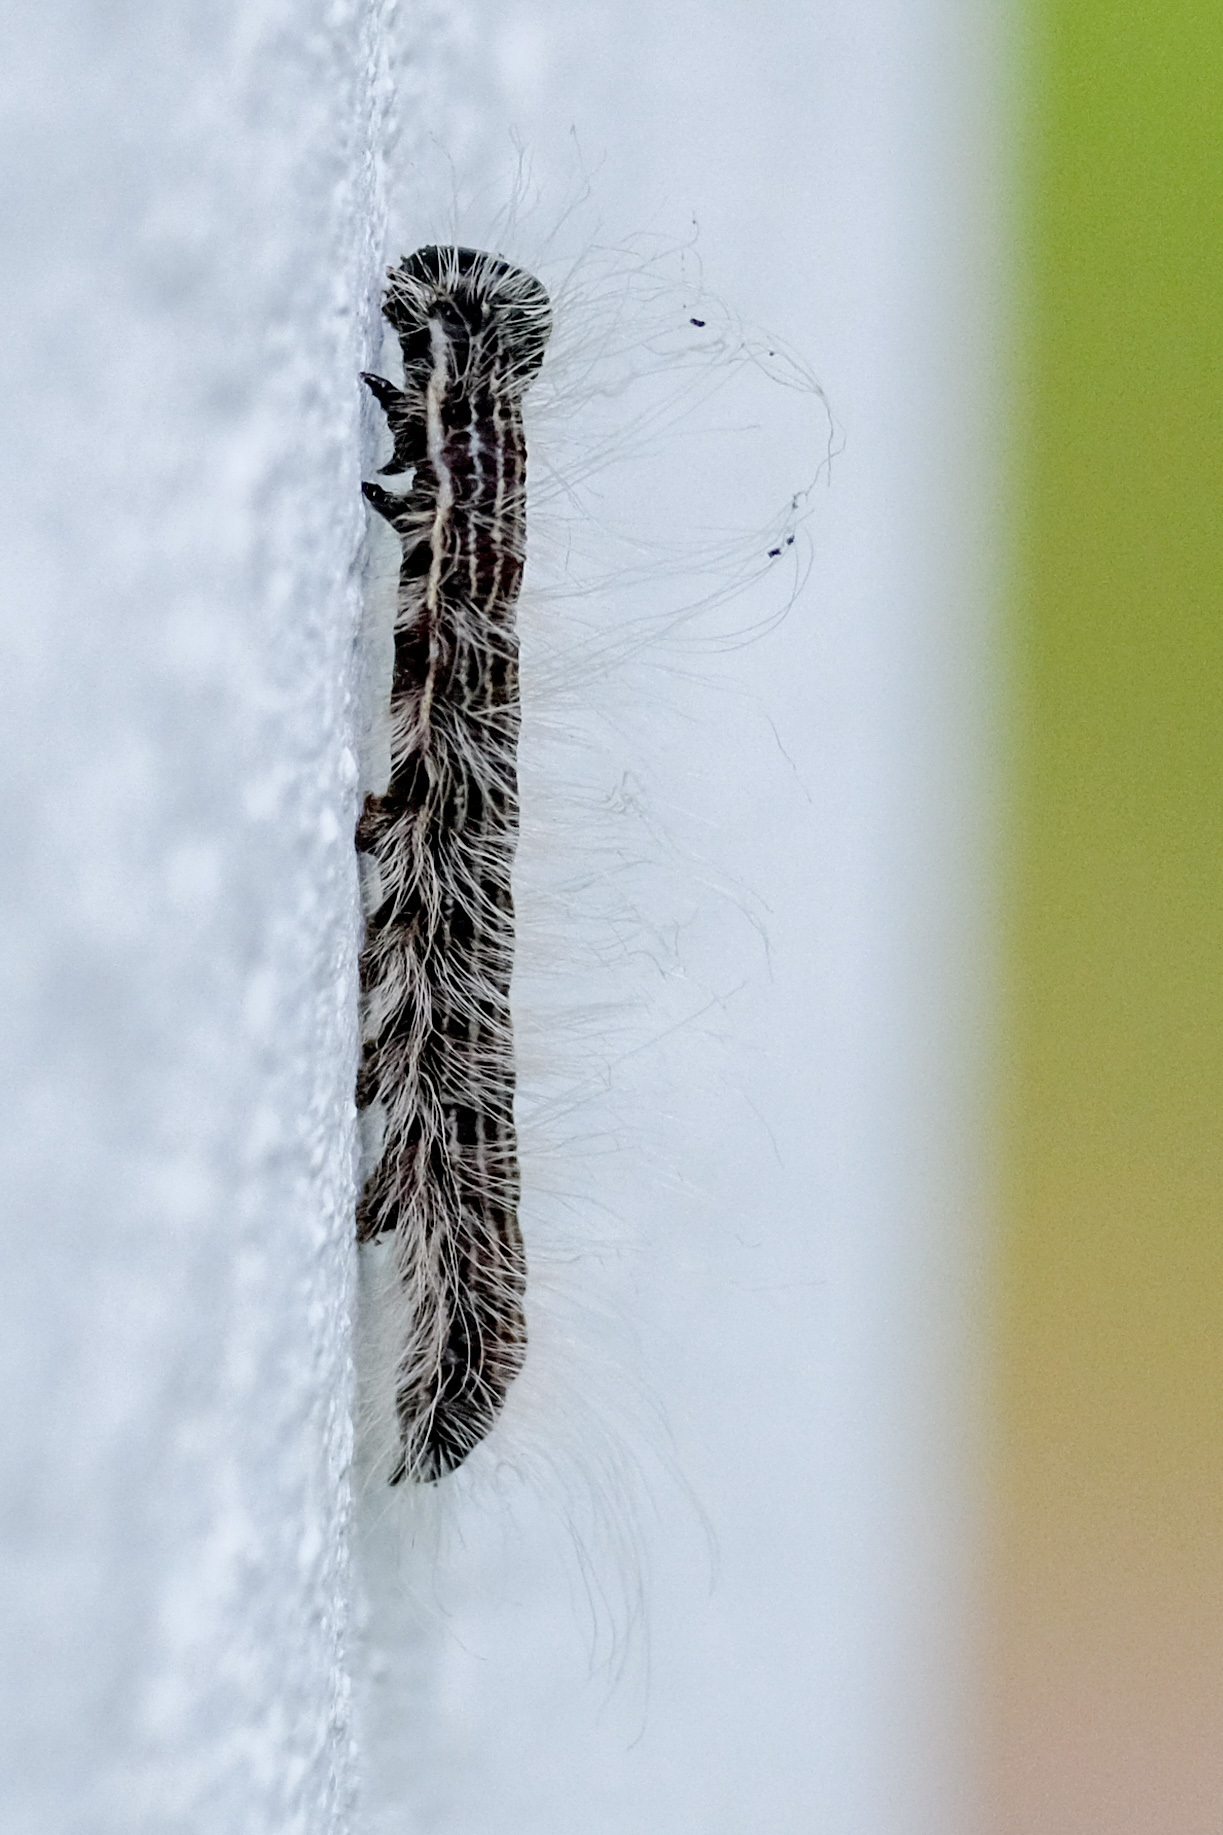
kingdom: Animalia
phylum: Arthropoda
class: Insecta
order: Lepidoptera
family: Notodontidae
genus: Datana
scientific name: Datana integerrima
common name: Walnut caterpillar
